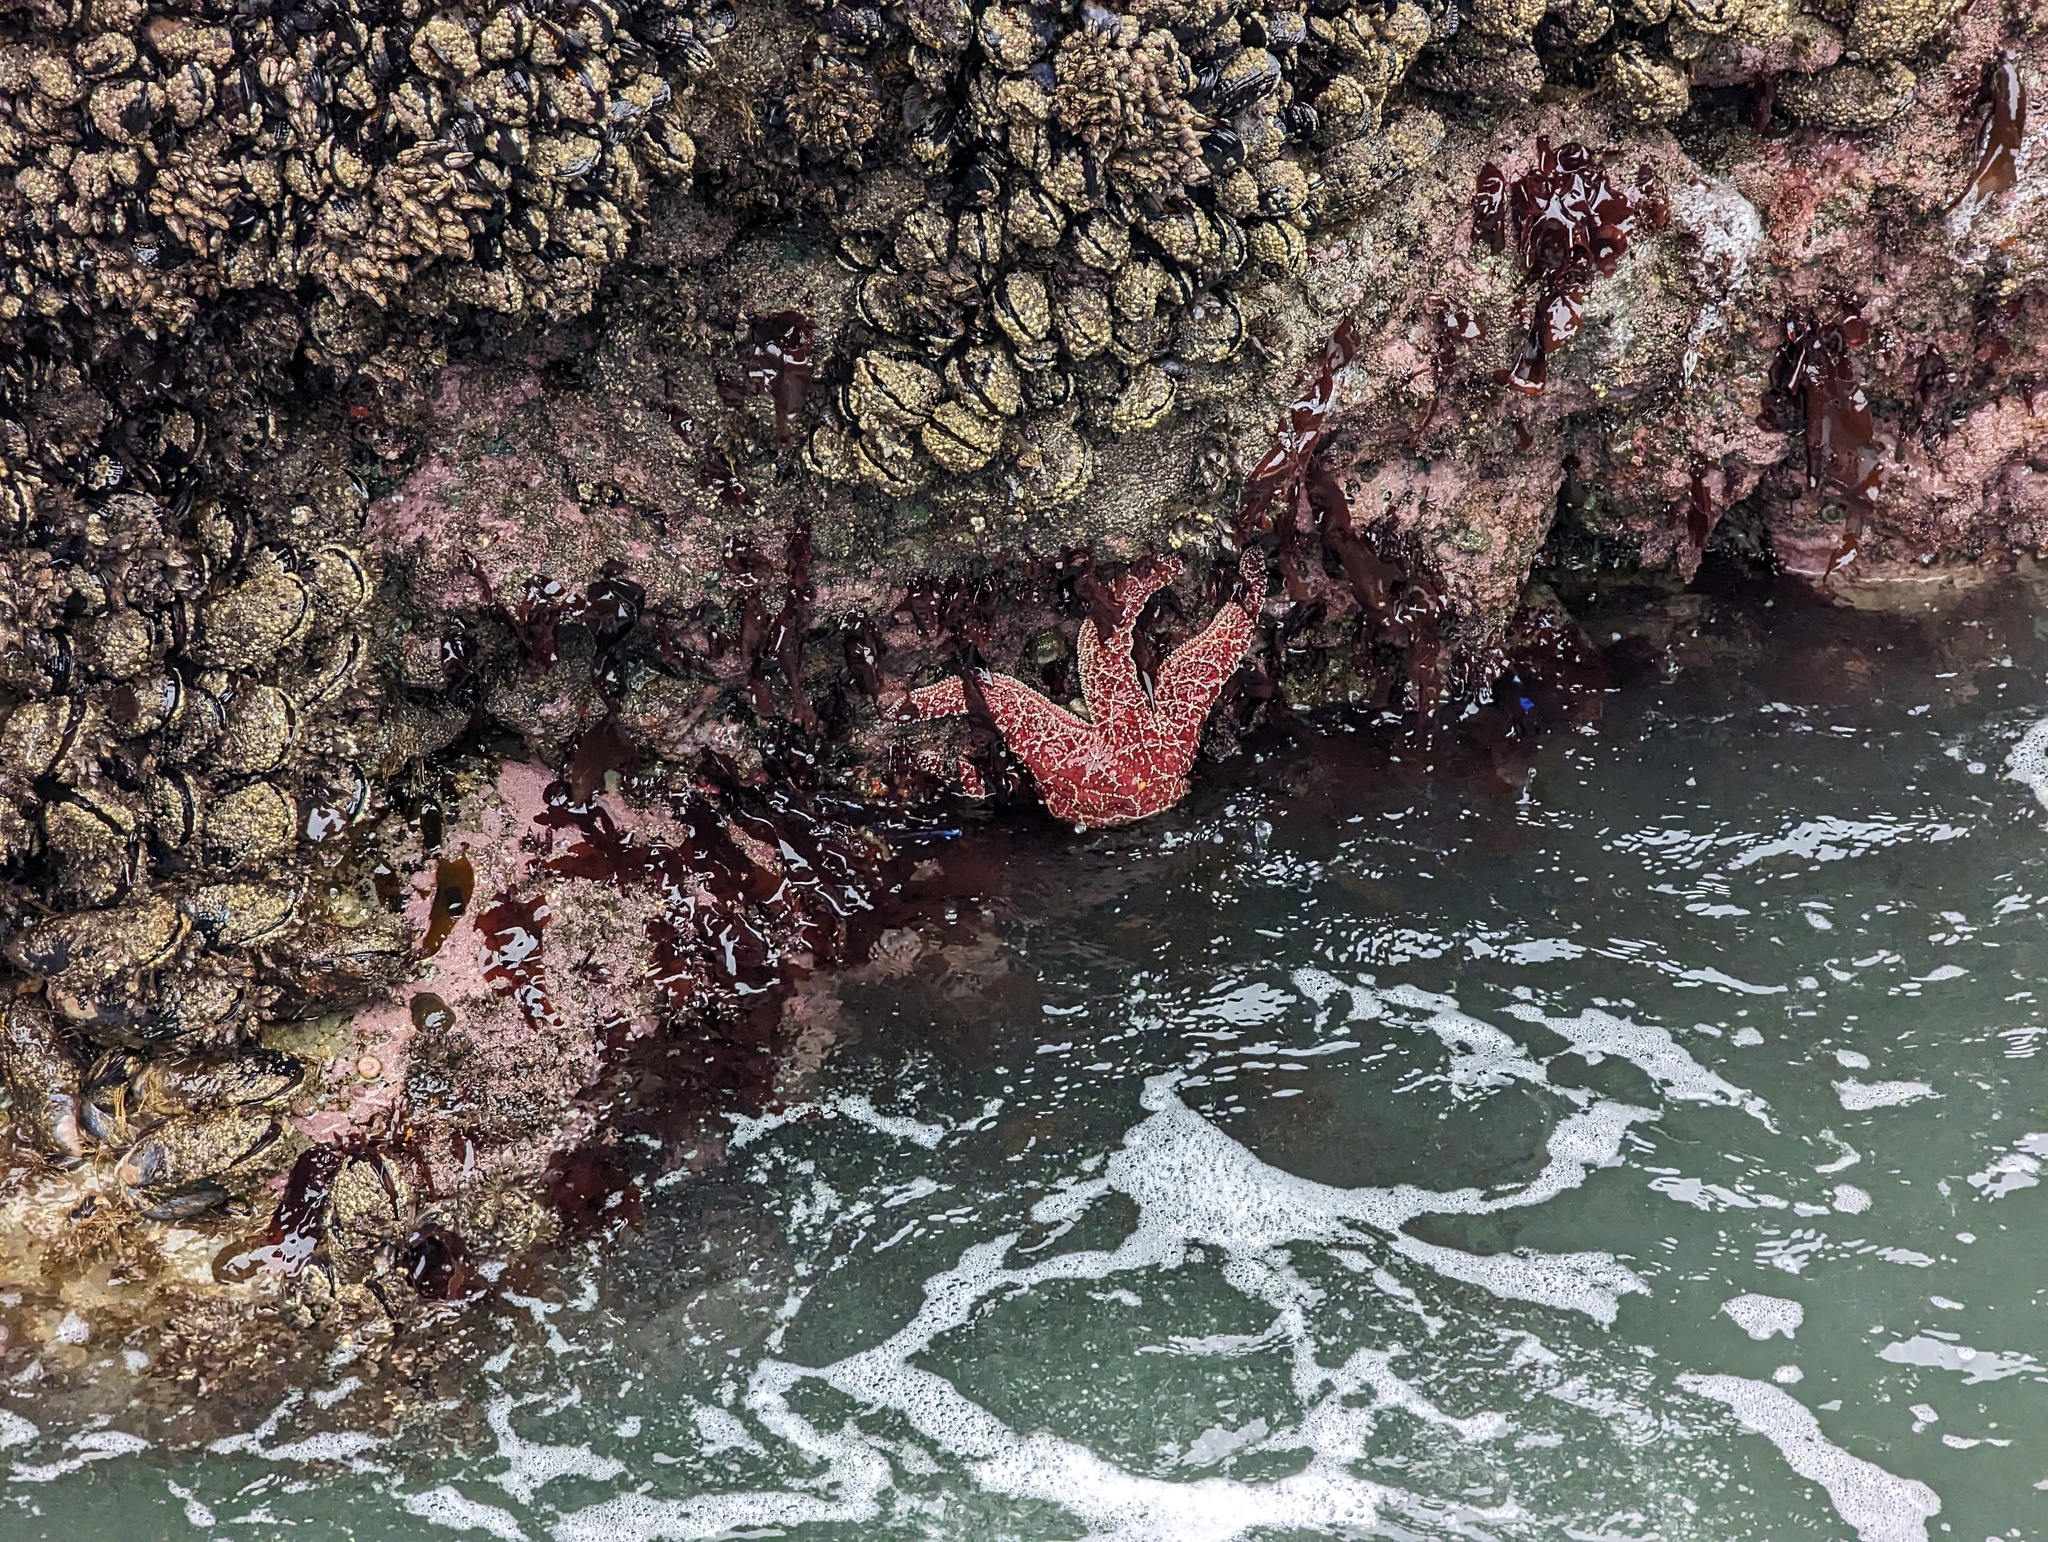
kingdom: Animalia
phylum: Echinodermata
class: Asteroidea
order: Forcipulatida
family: Asteriidae
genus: Pisaster
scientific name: Pisaster ochraceus
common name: Ochre stars
